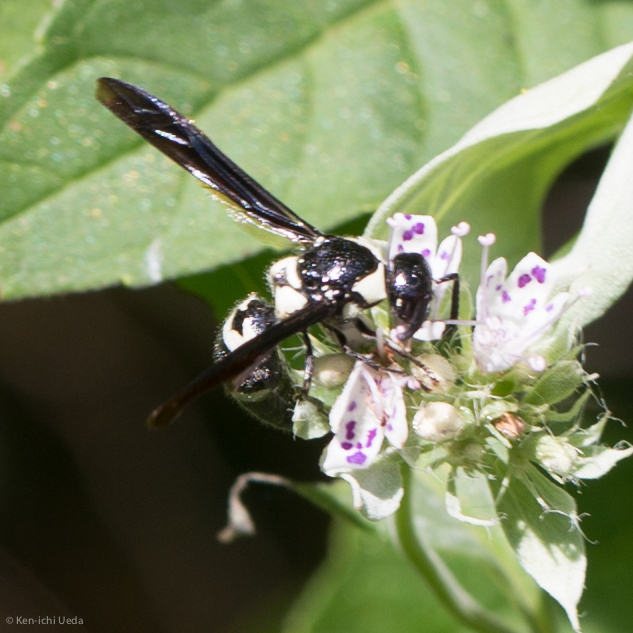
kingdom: Animalia
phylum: Arthropoda
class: Insecta
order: Hymenoptera
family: Eumenidae
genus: Pseudodynerus
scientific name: Pseudodynerus quadrisectus
